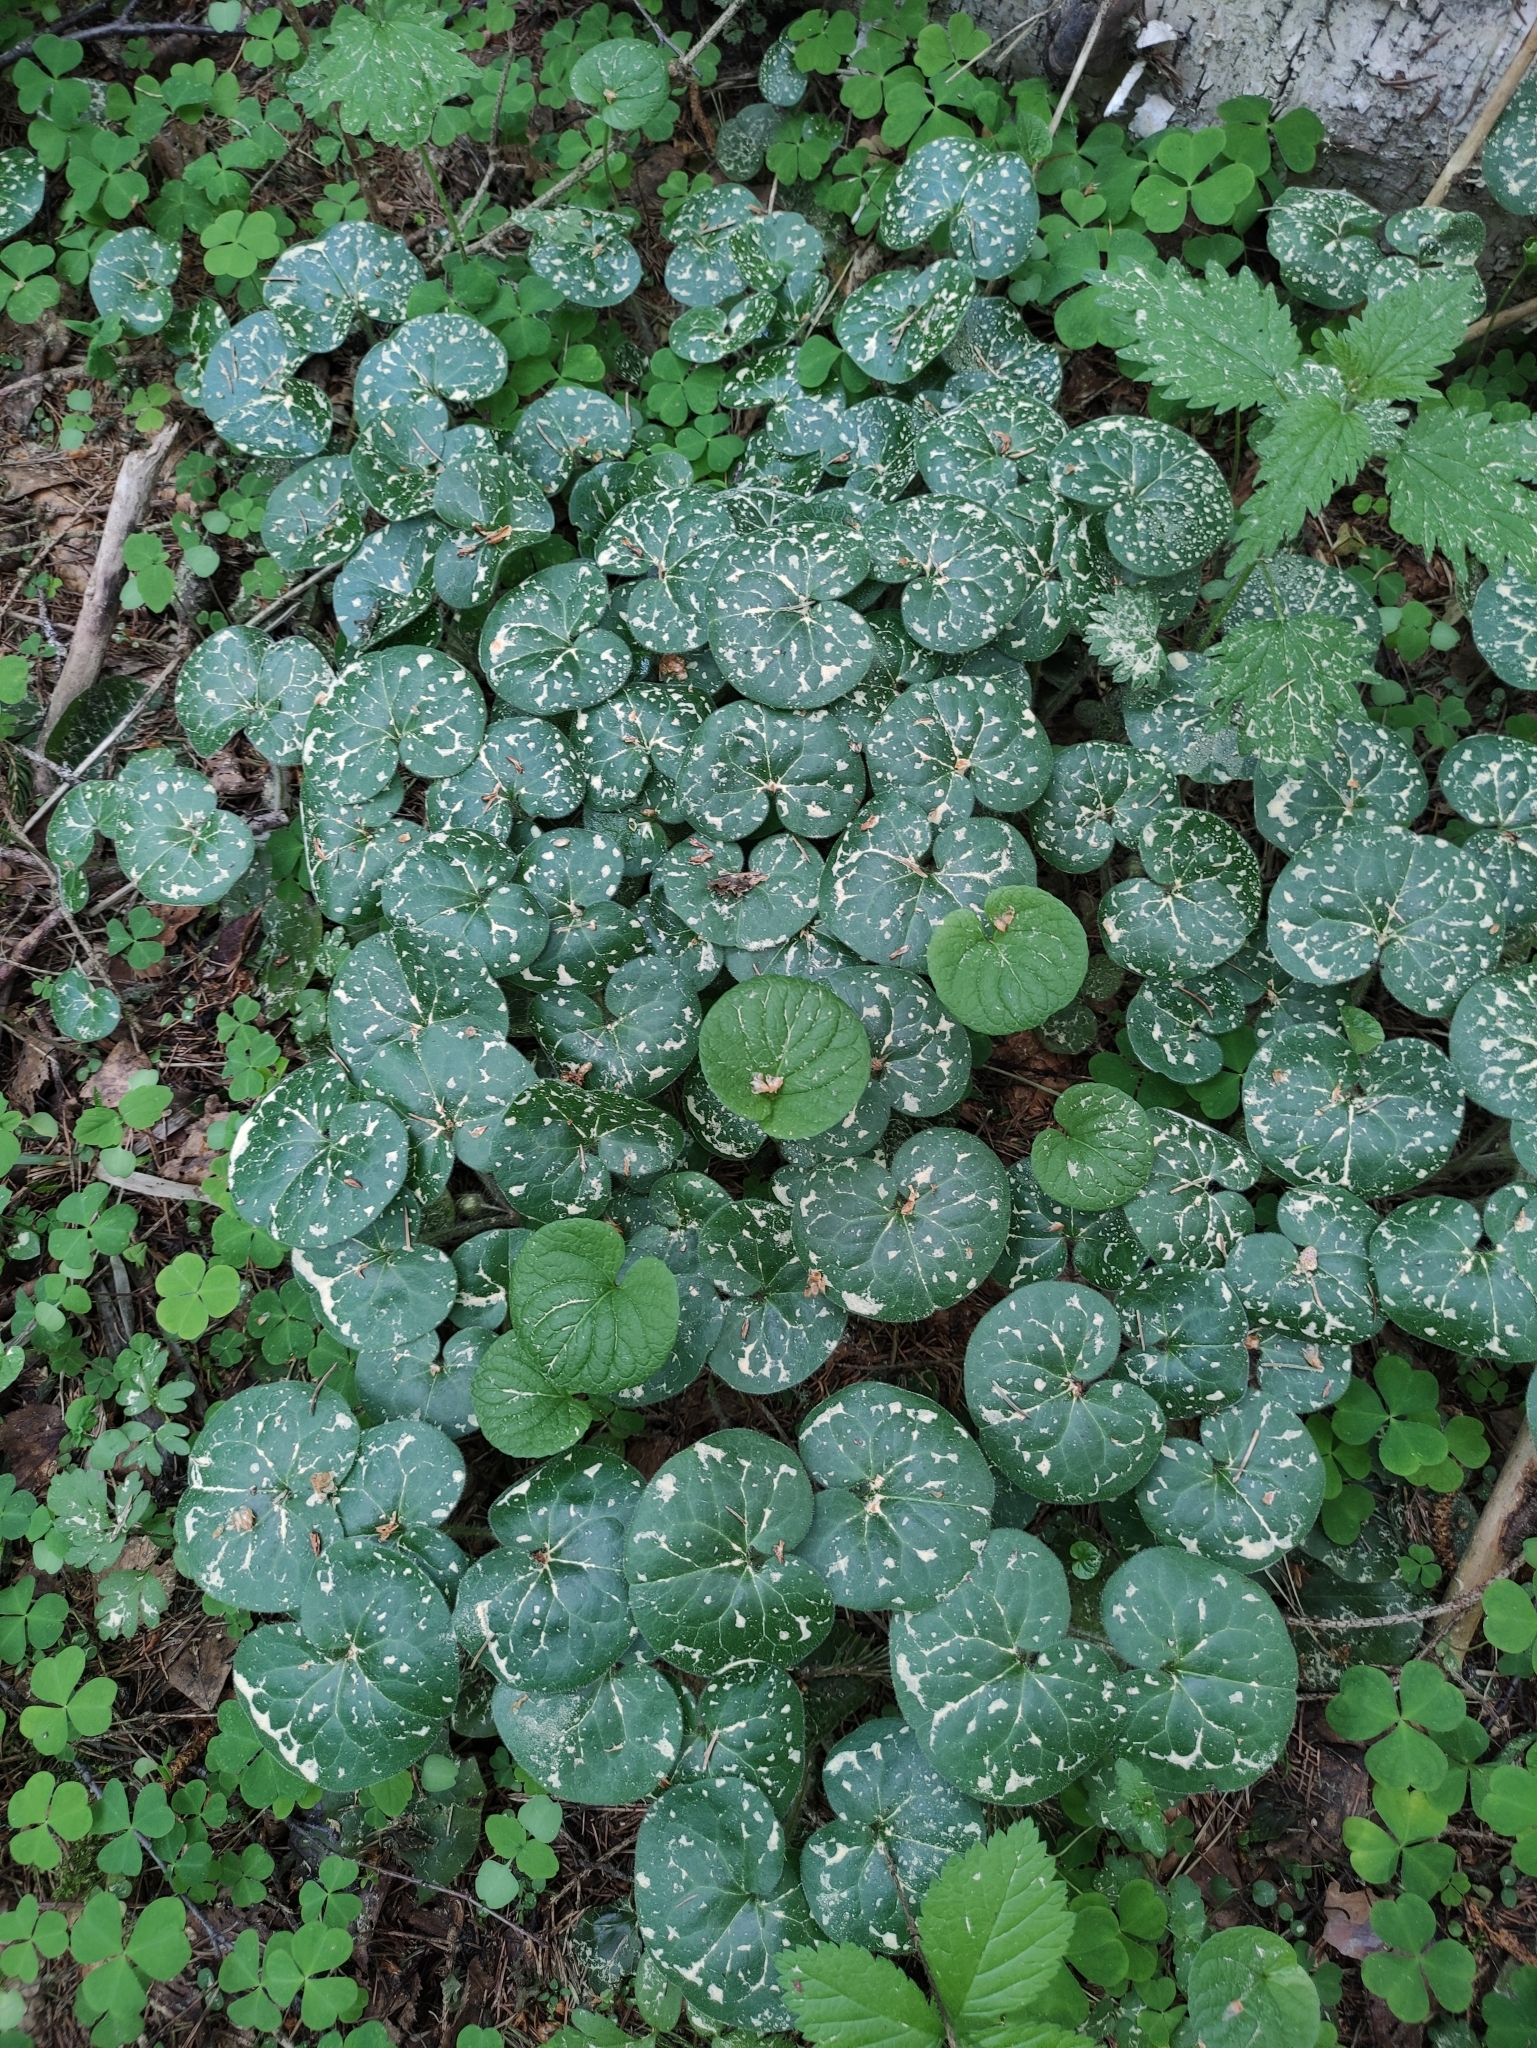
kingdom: Plantae
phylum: Tracheophyta
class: Magnoliopsida
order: Piperales
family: Aristolochiaceae
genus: Asarum
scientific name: Asarum europaeum
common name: Asarabacca
